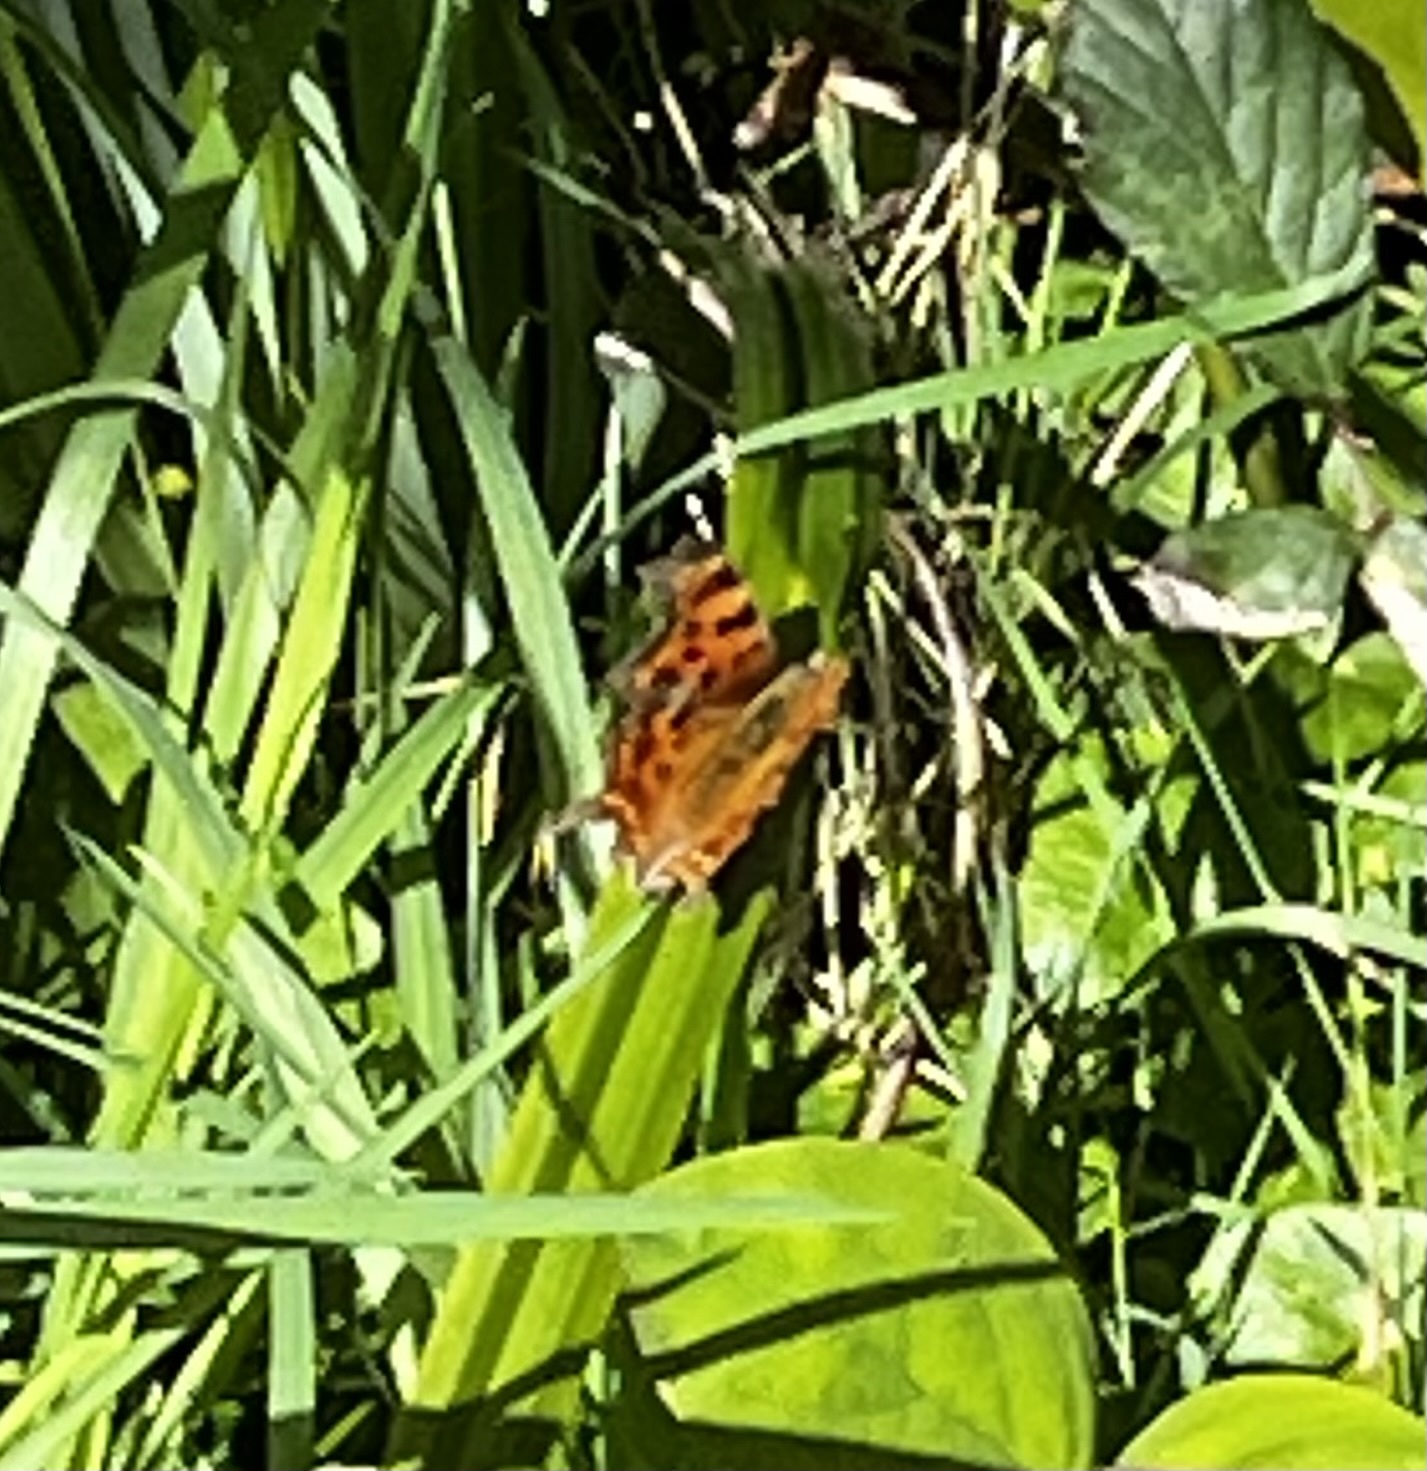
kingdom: Animalia
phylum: Arthropoda
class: Insecta
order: Lepidoptera
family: Nymphalidae
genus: Polygonia
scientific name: Polygonia c-album
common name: Comma
